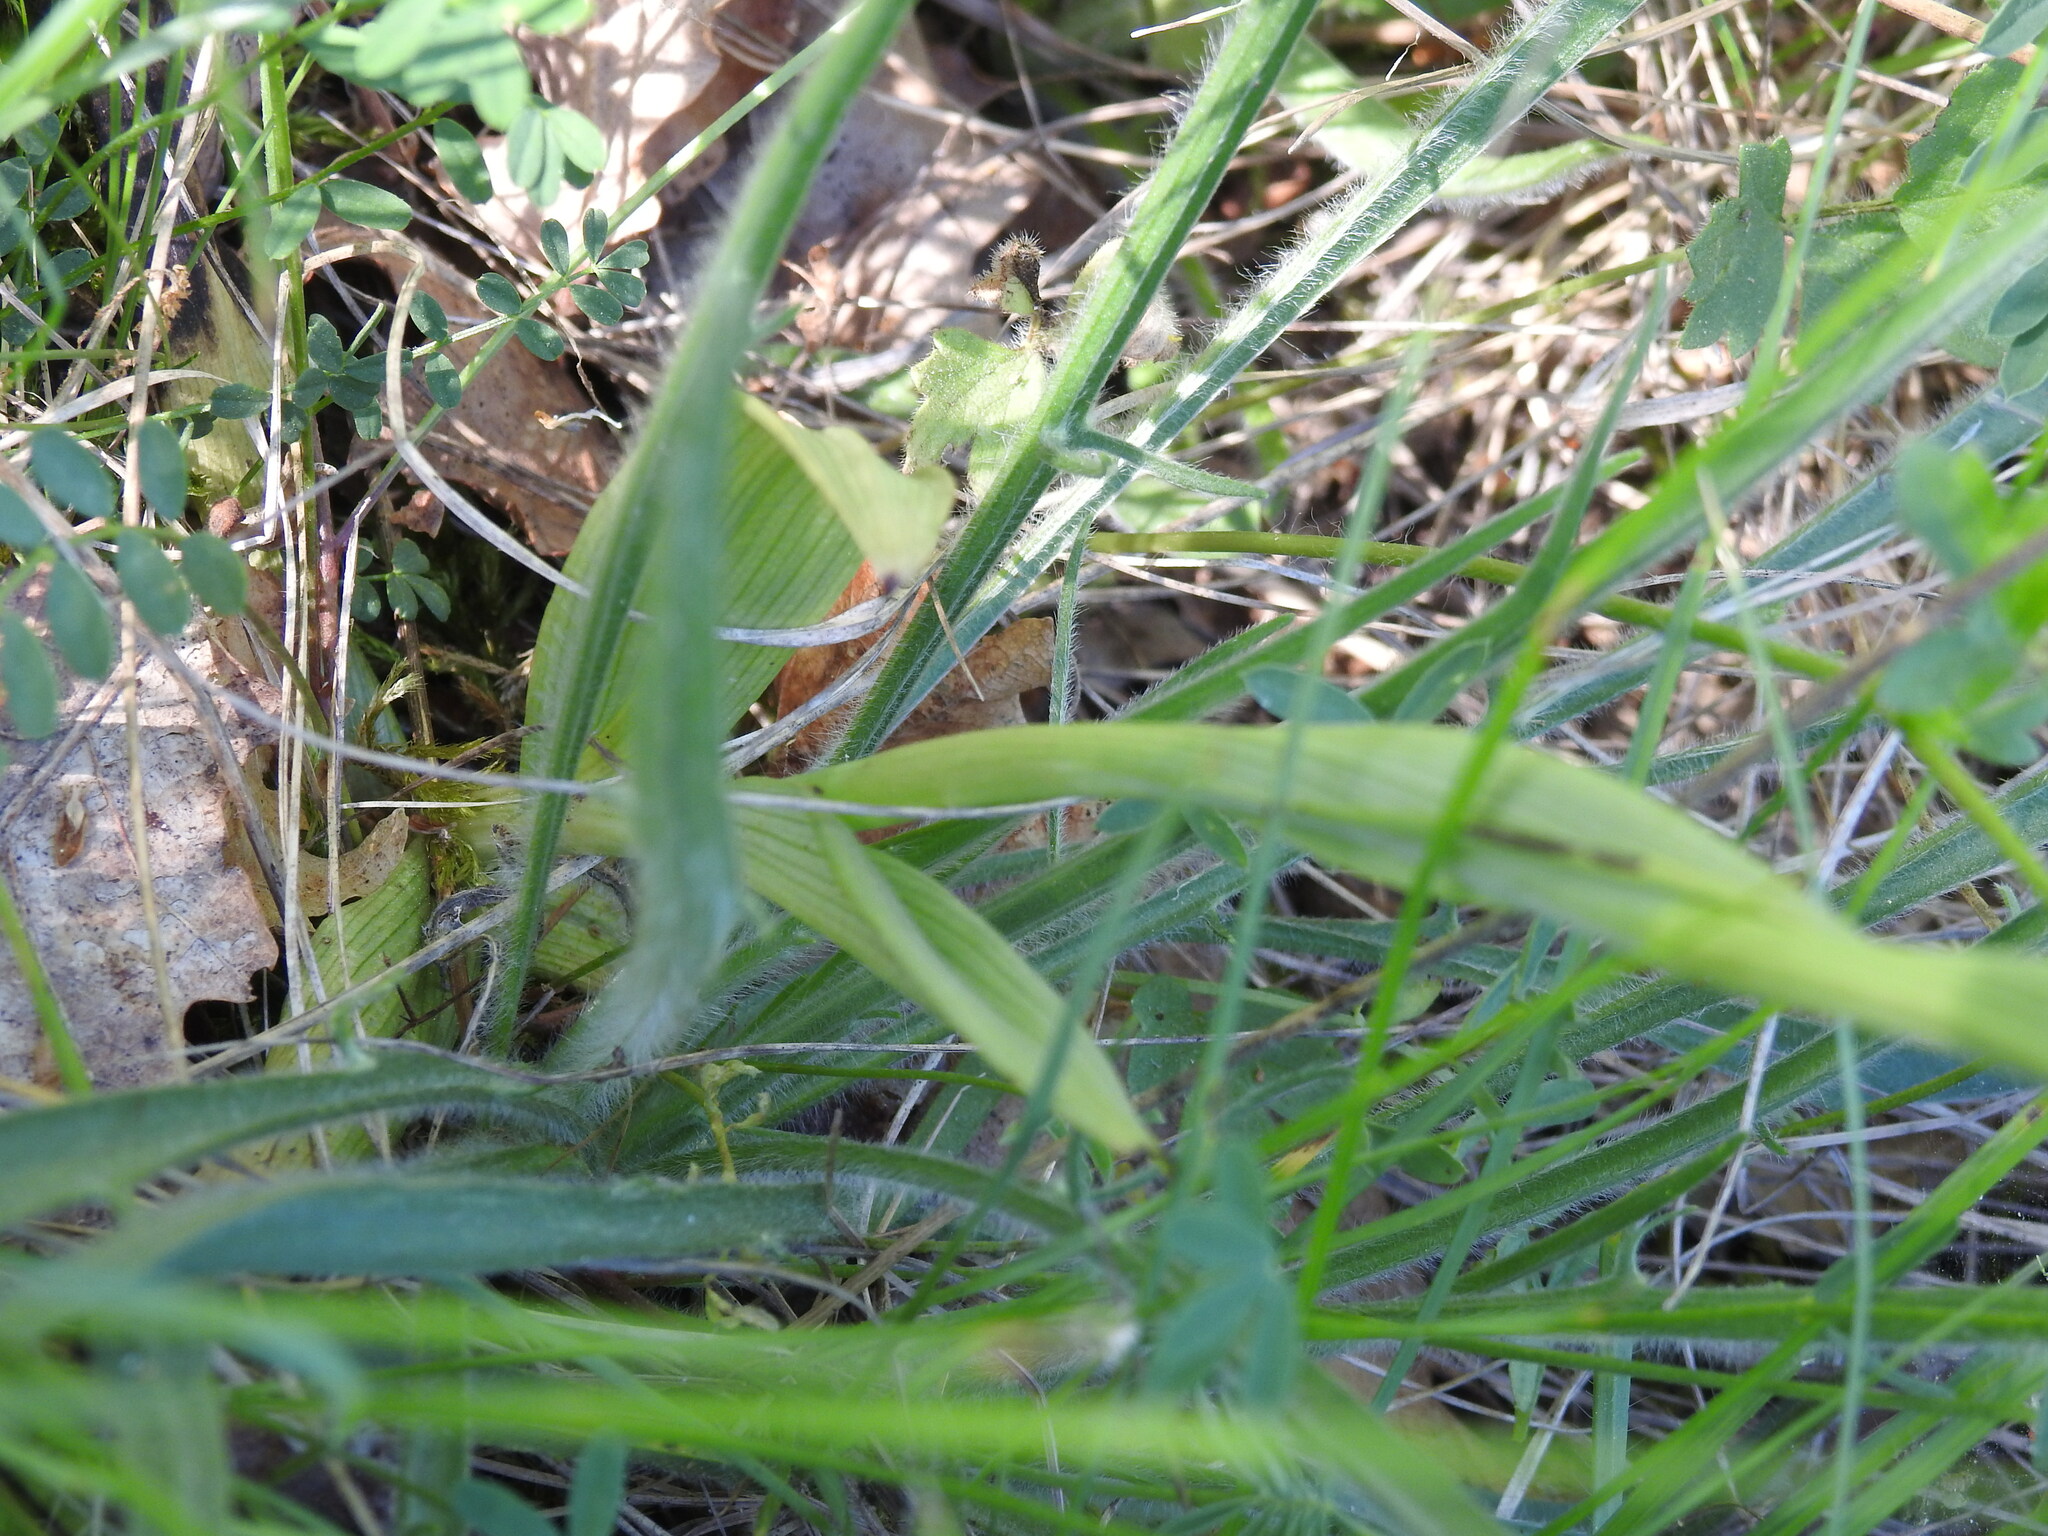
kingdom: Plantae
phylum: Tracheophyta
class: Liliopsida
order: Asparagales
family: Orchidaceae
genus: Ophrys
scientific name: Ophrys apifera
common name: Bee orchid
